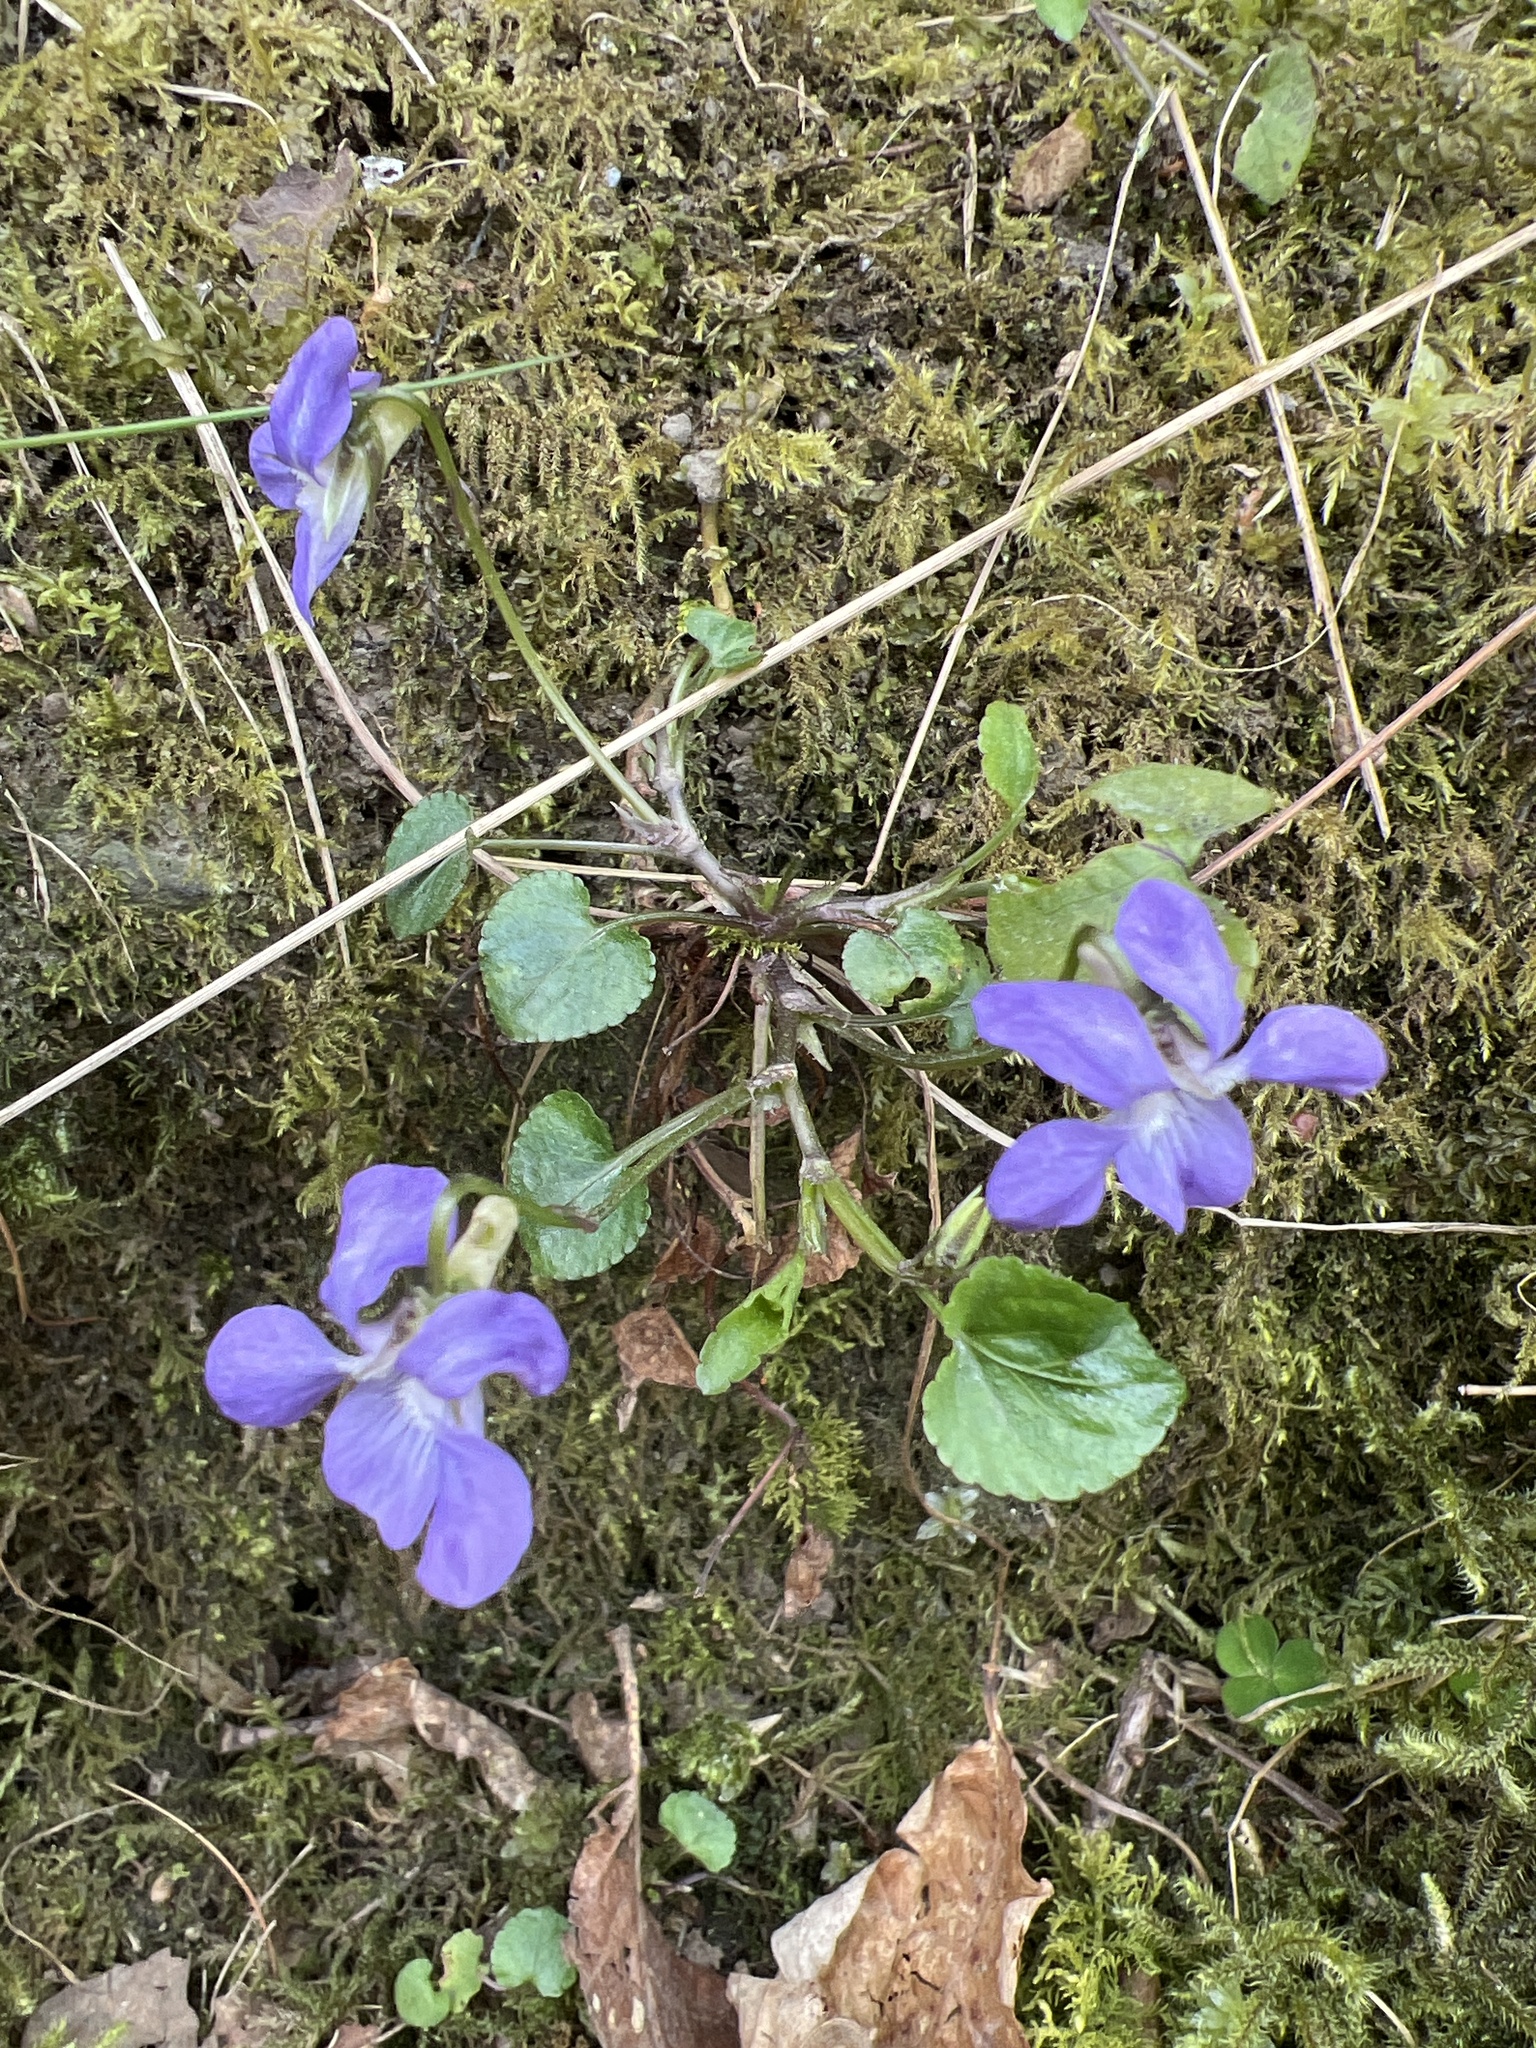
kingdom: Plantae
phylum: Tracheophyta
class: Magnoliopsida
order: Malpighiales
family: Violaceae
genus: Viola
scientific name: Viola riviniana
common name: Common dog-violet
